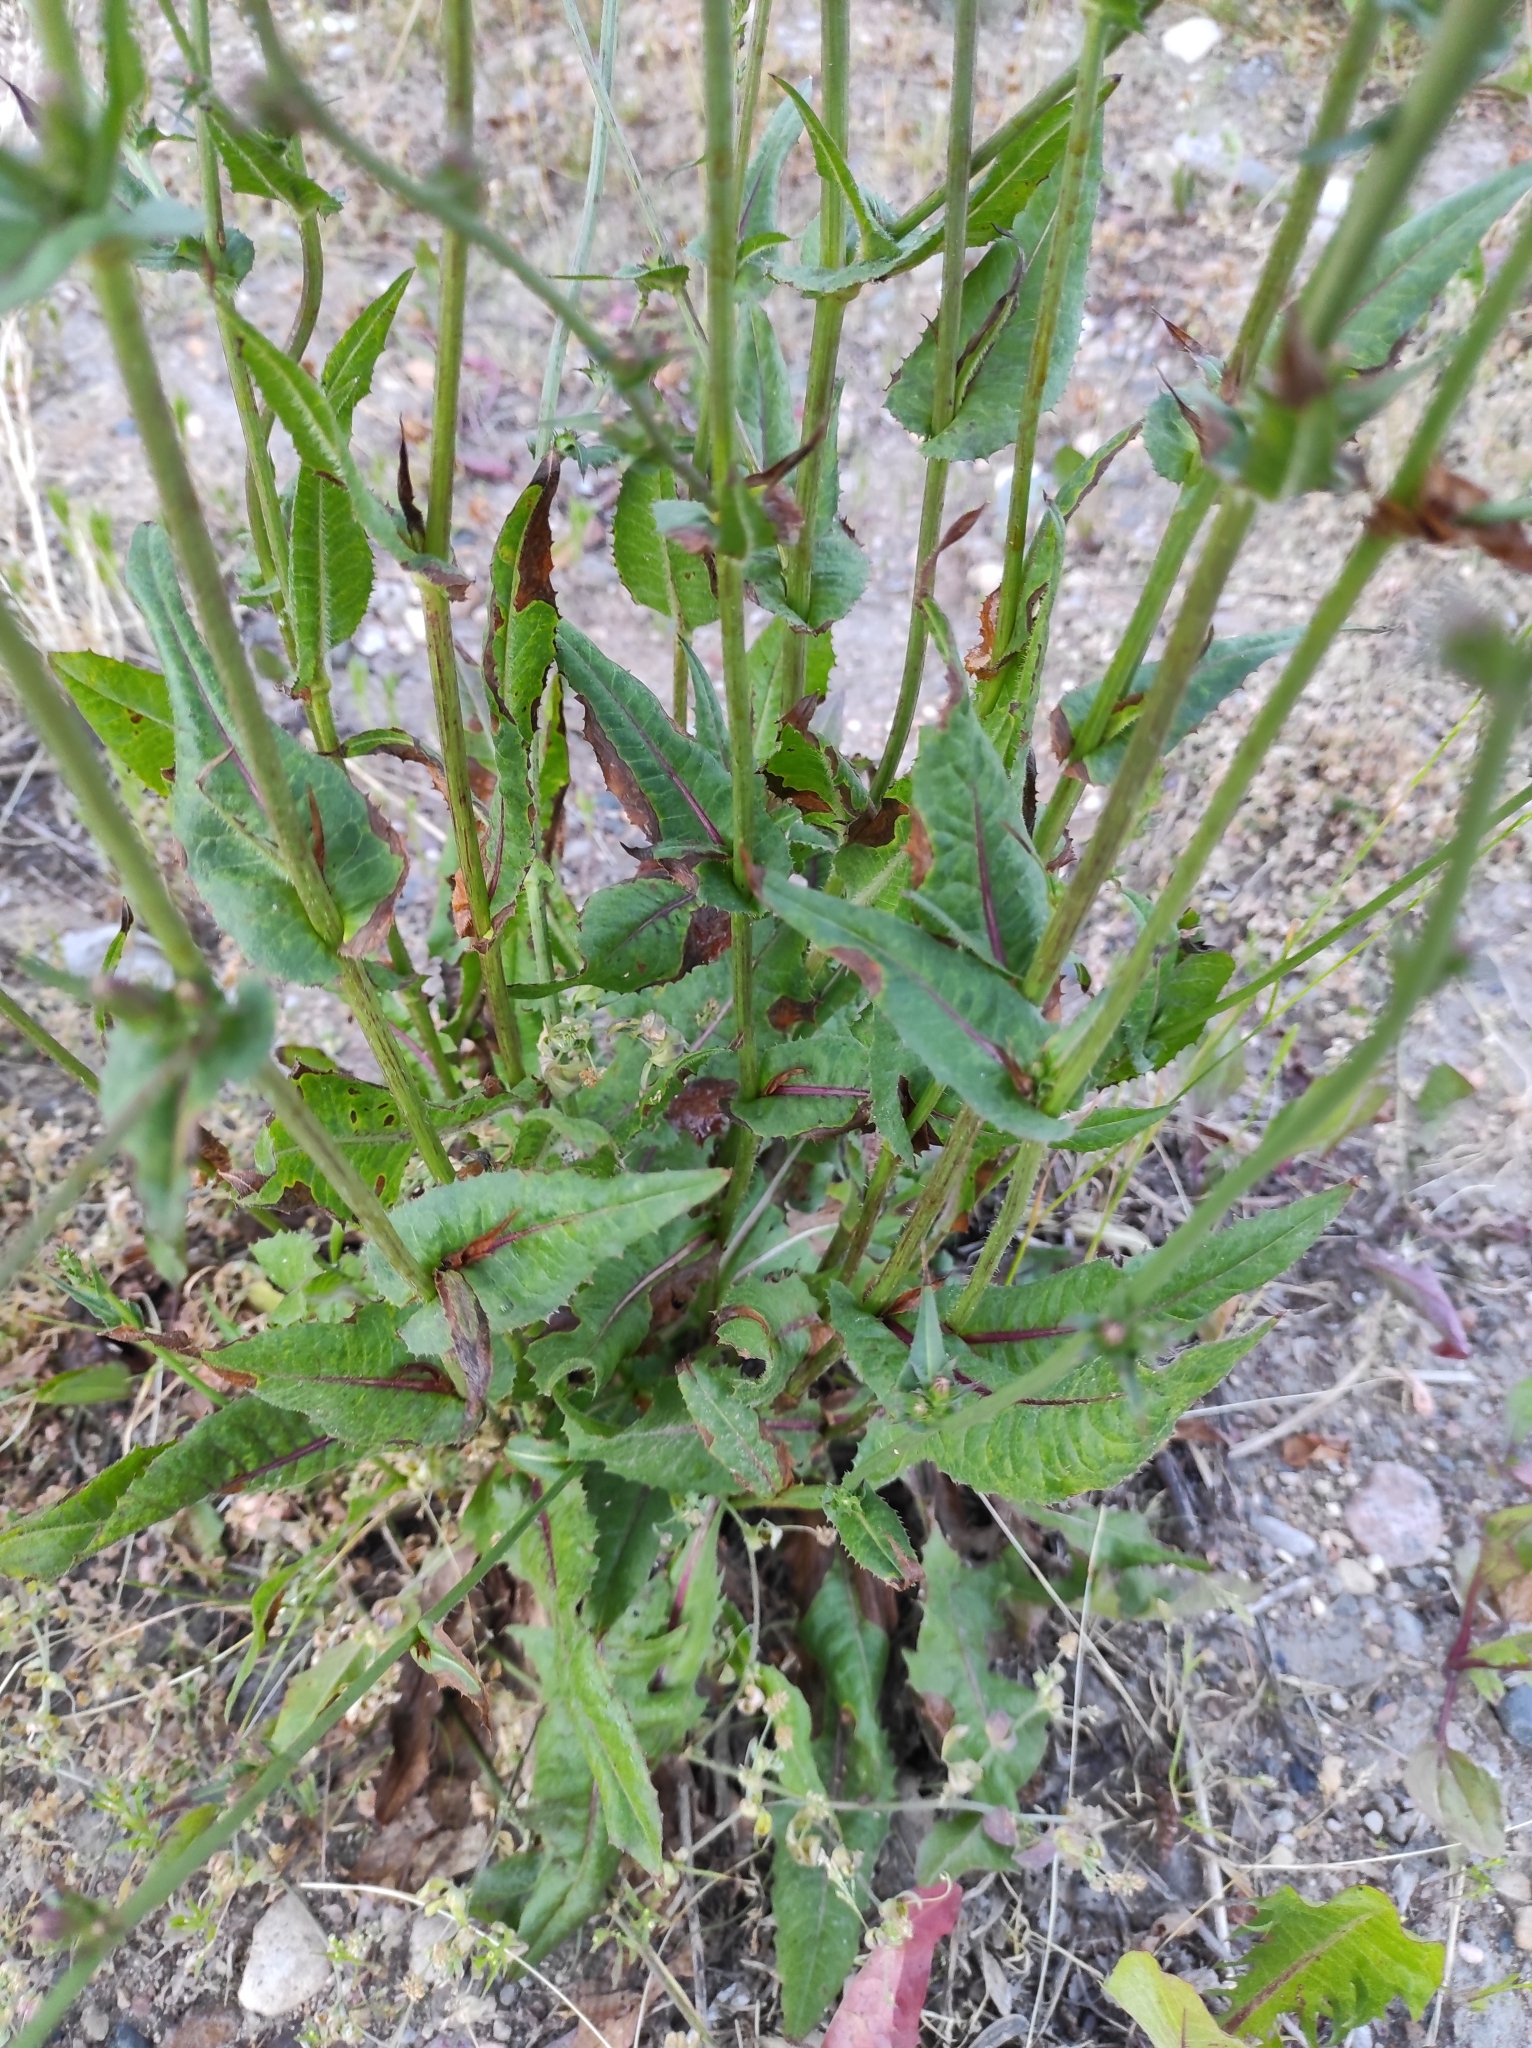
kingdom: Plantae
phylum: Tracheophyta
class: Magnoliopsida
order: Asterales
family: Asteraceae
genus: Cichorium
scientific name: Cichorium intybus
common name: Chicory
